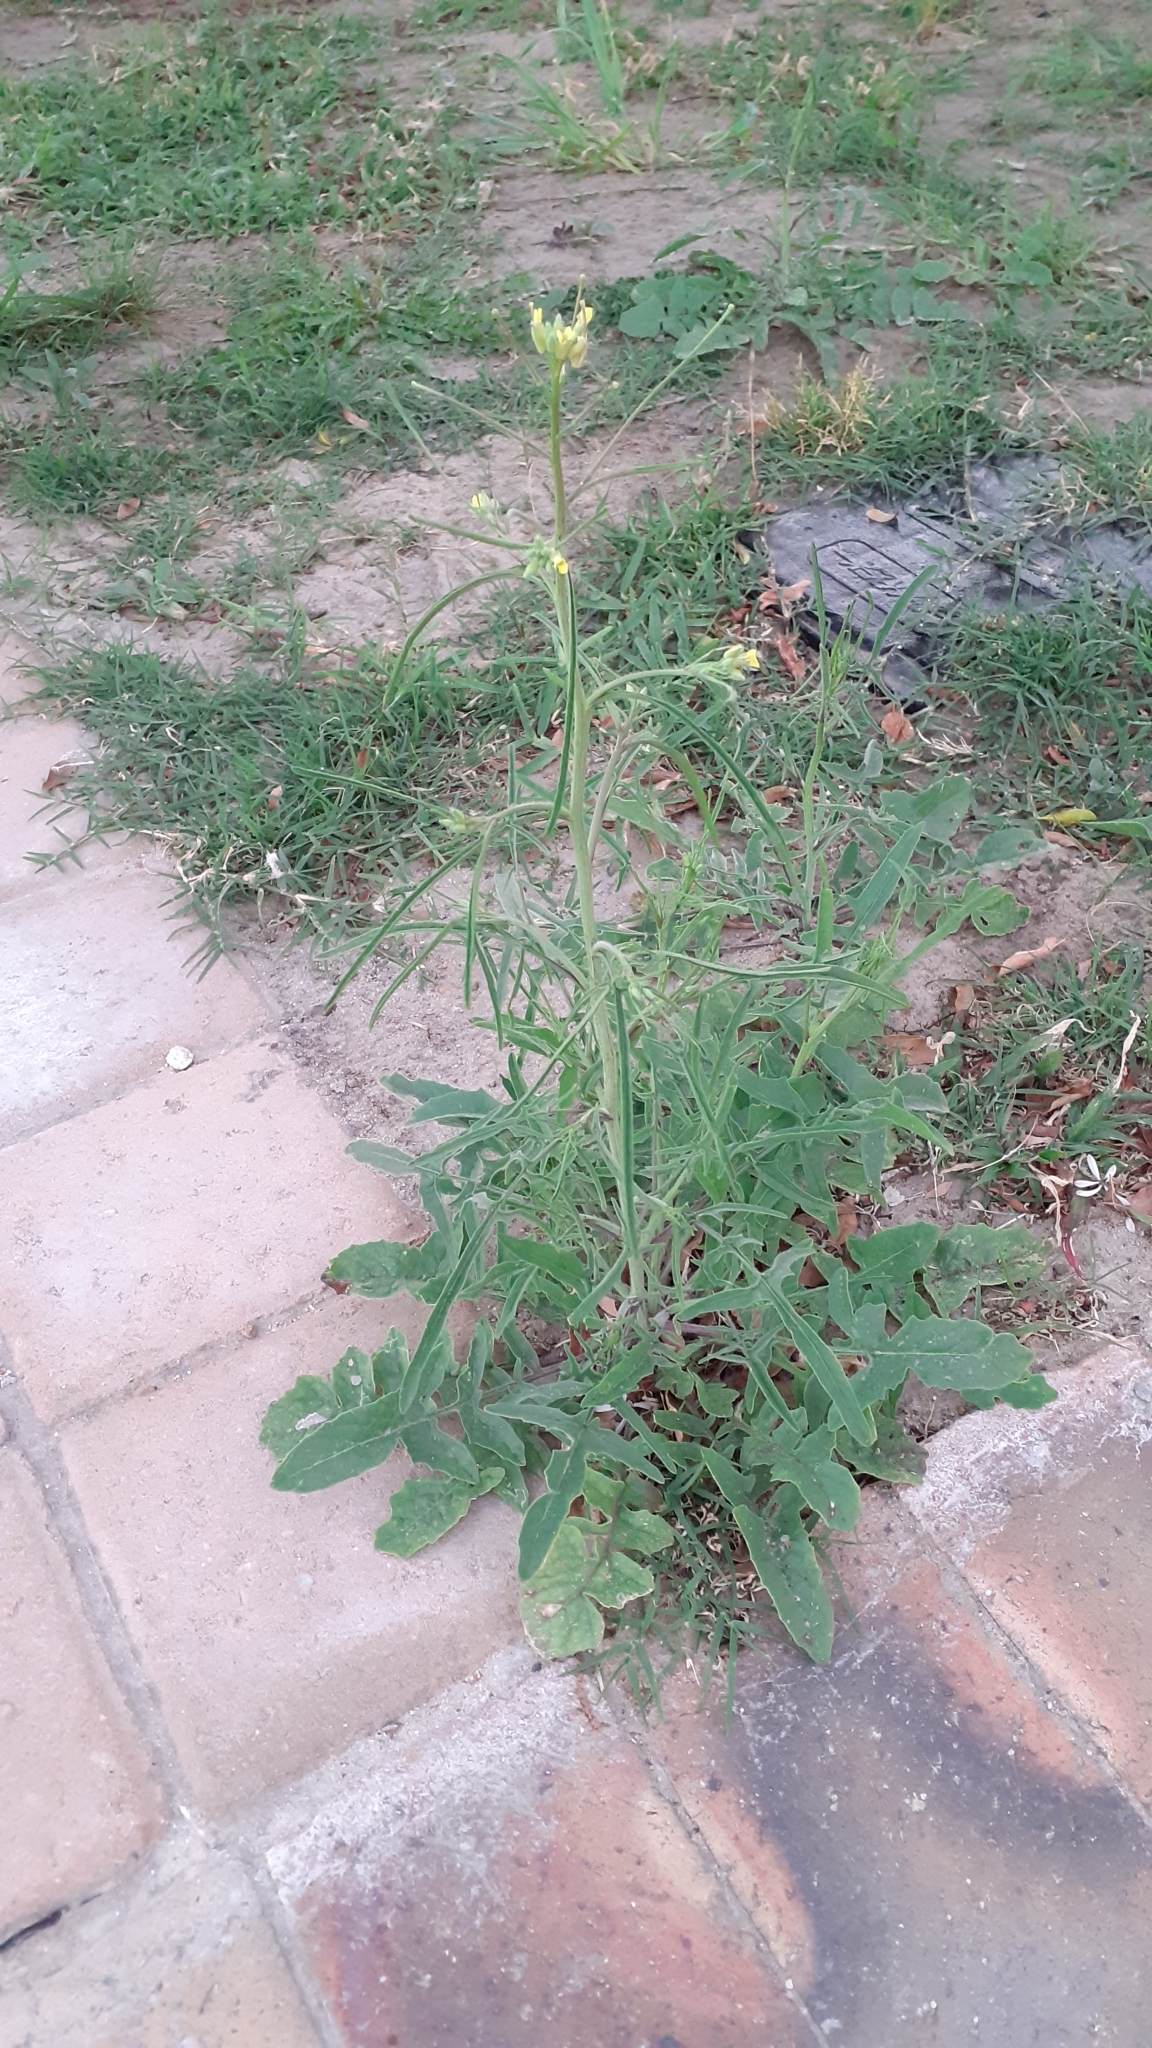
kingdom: Plantae
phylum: Tracheophyta
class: Magnoliopsida
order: Brassicales
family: Brassicaceae
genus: Sisymbrium
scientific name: Sisymbrium orientale
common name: Eastern rocket
